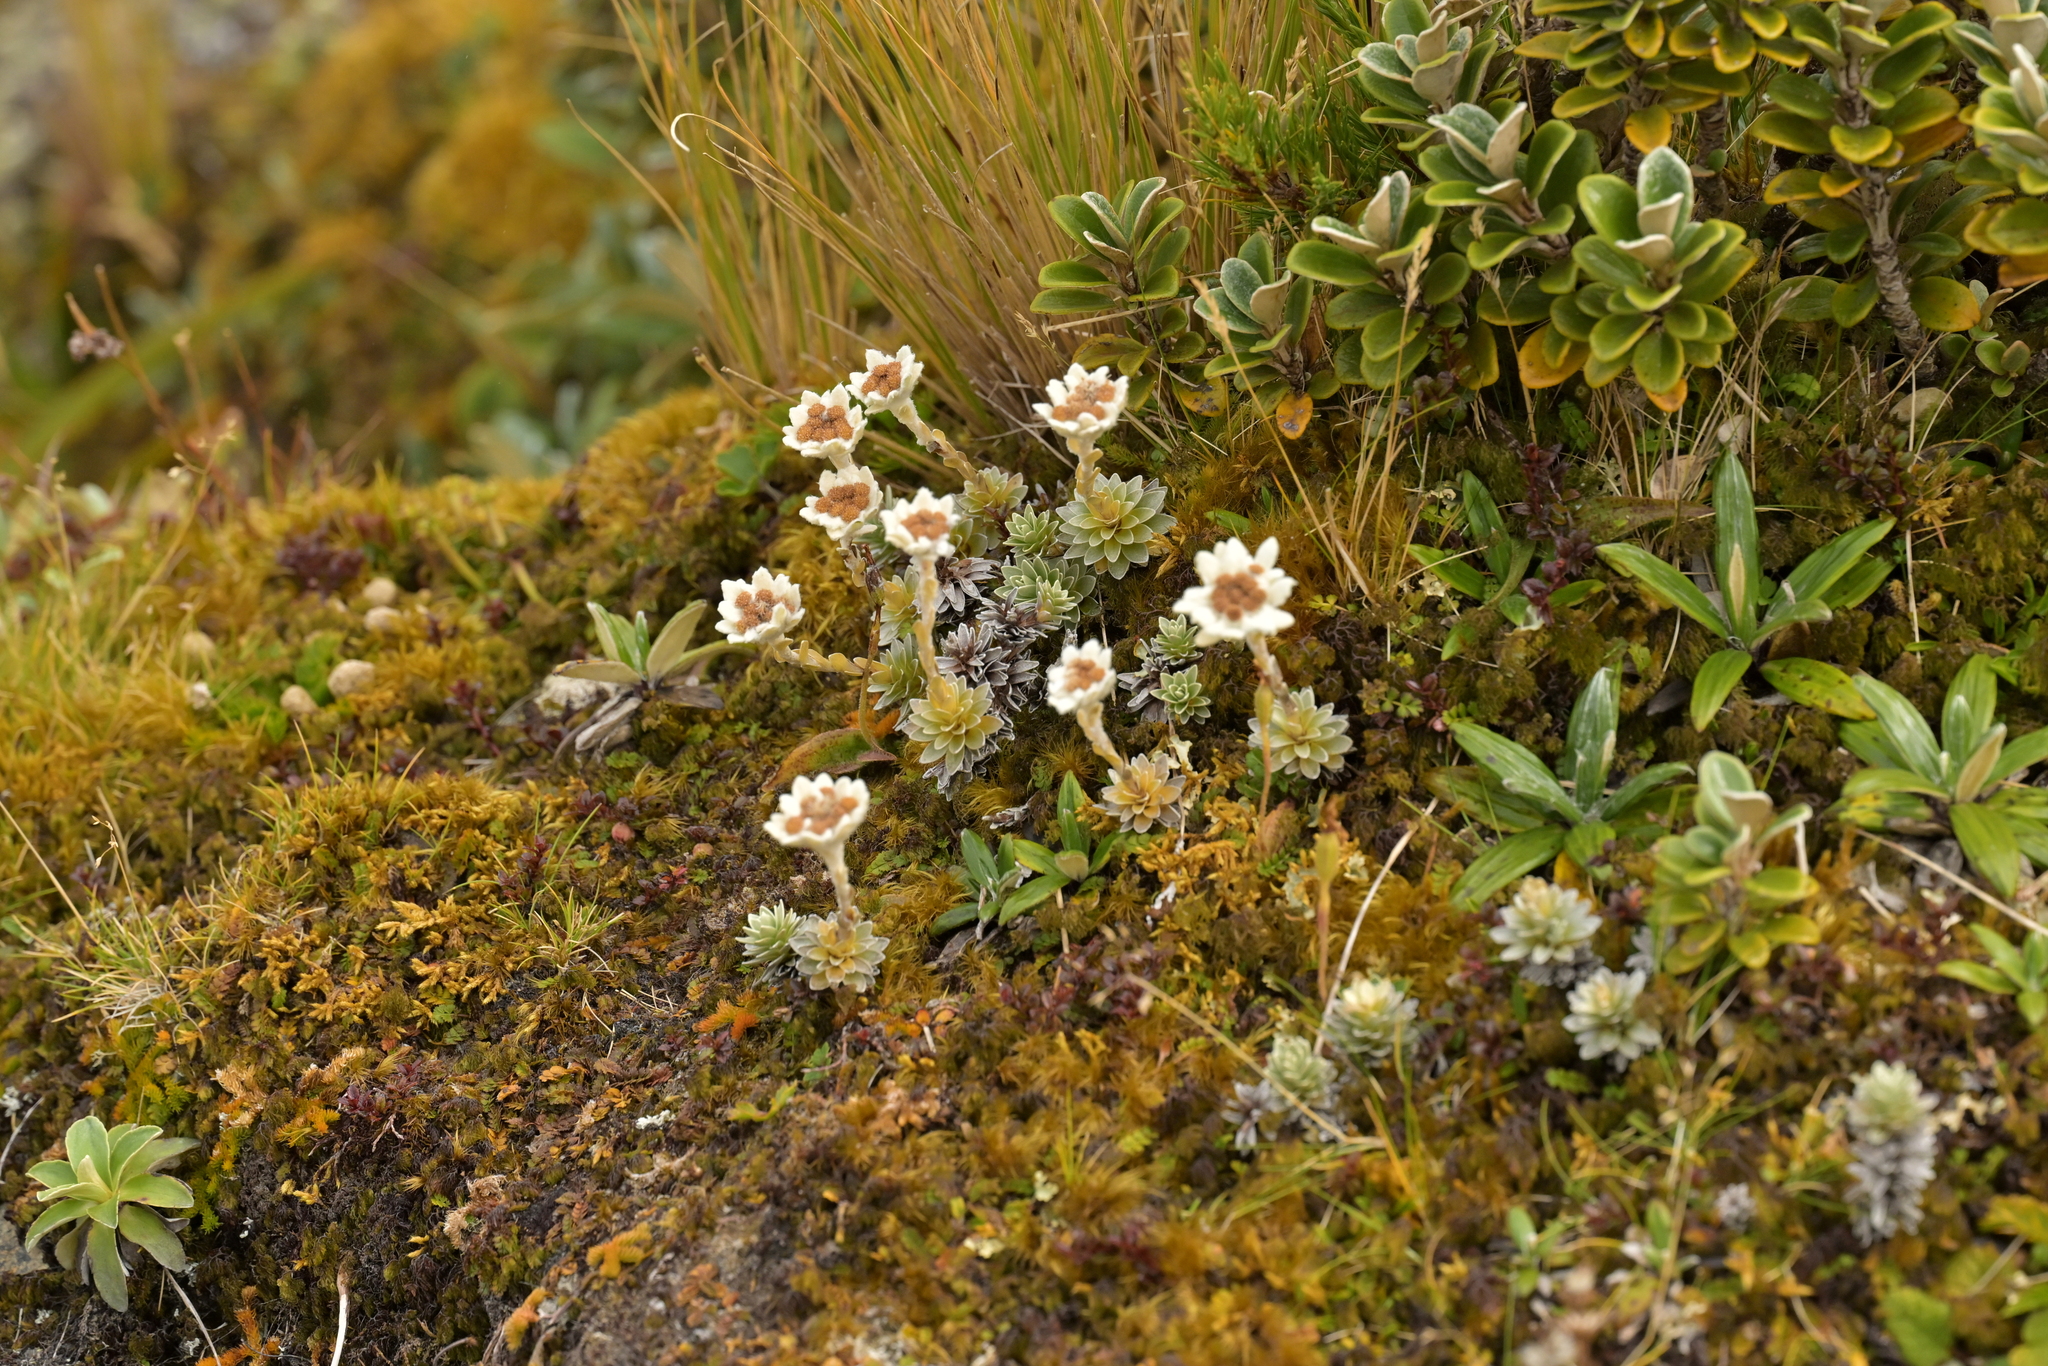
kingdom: Plantae
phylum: Tracheophyta
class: Magnoliopsida
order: Asterales
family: Asteraceae
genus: Leucogenes
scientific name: Leucogenes leontopodium
